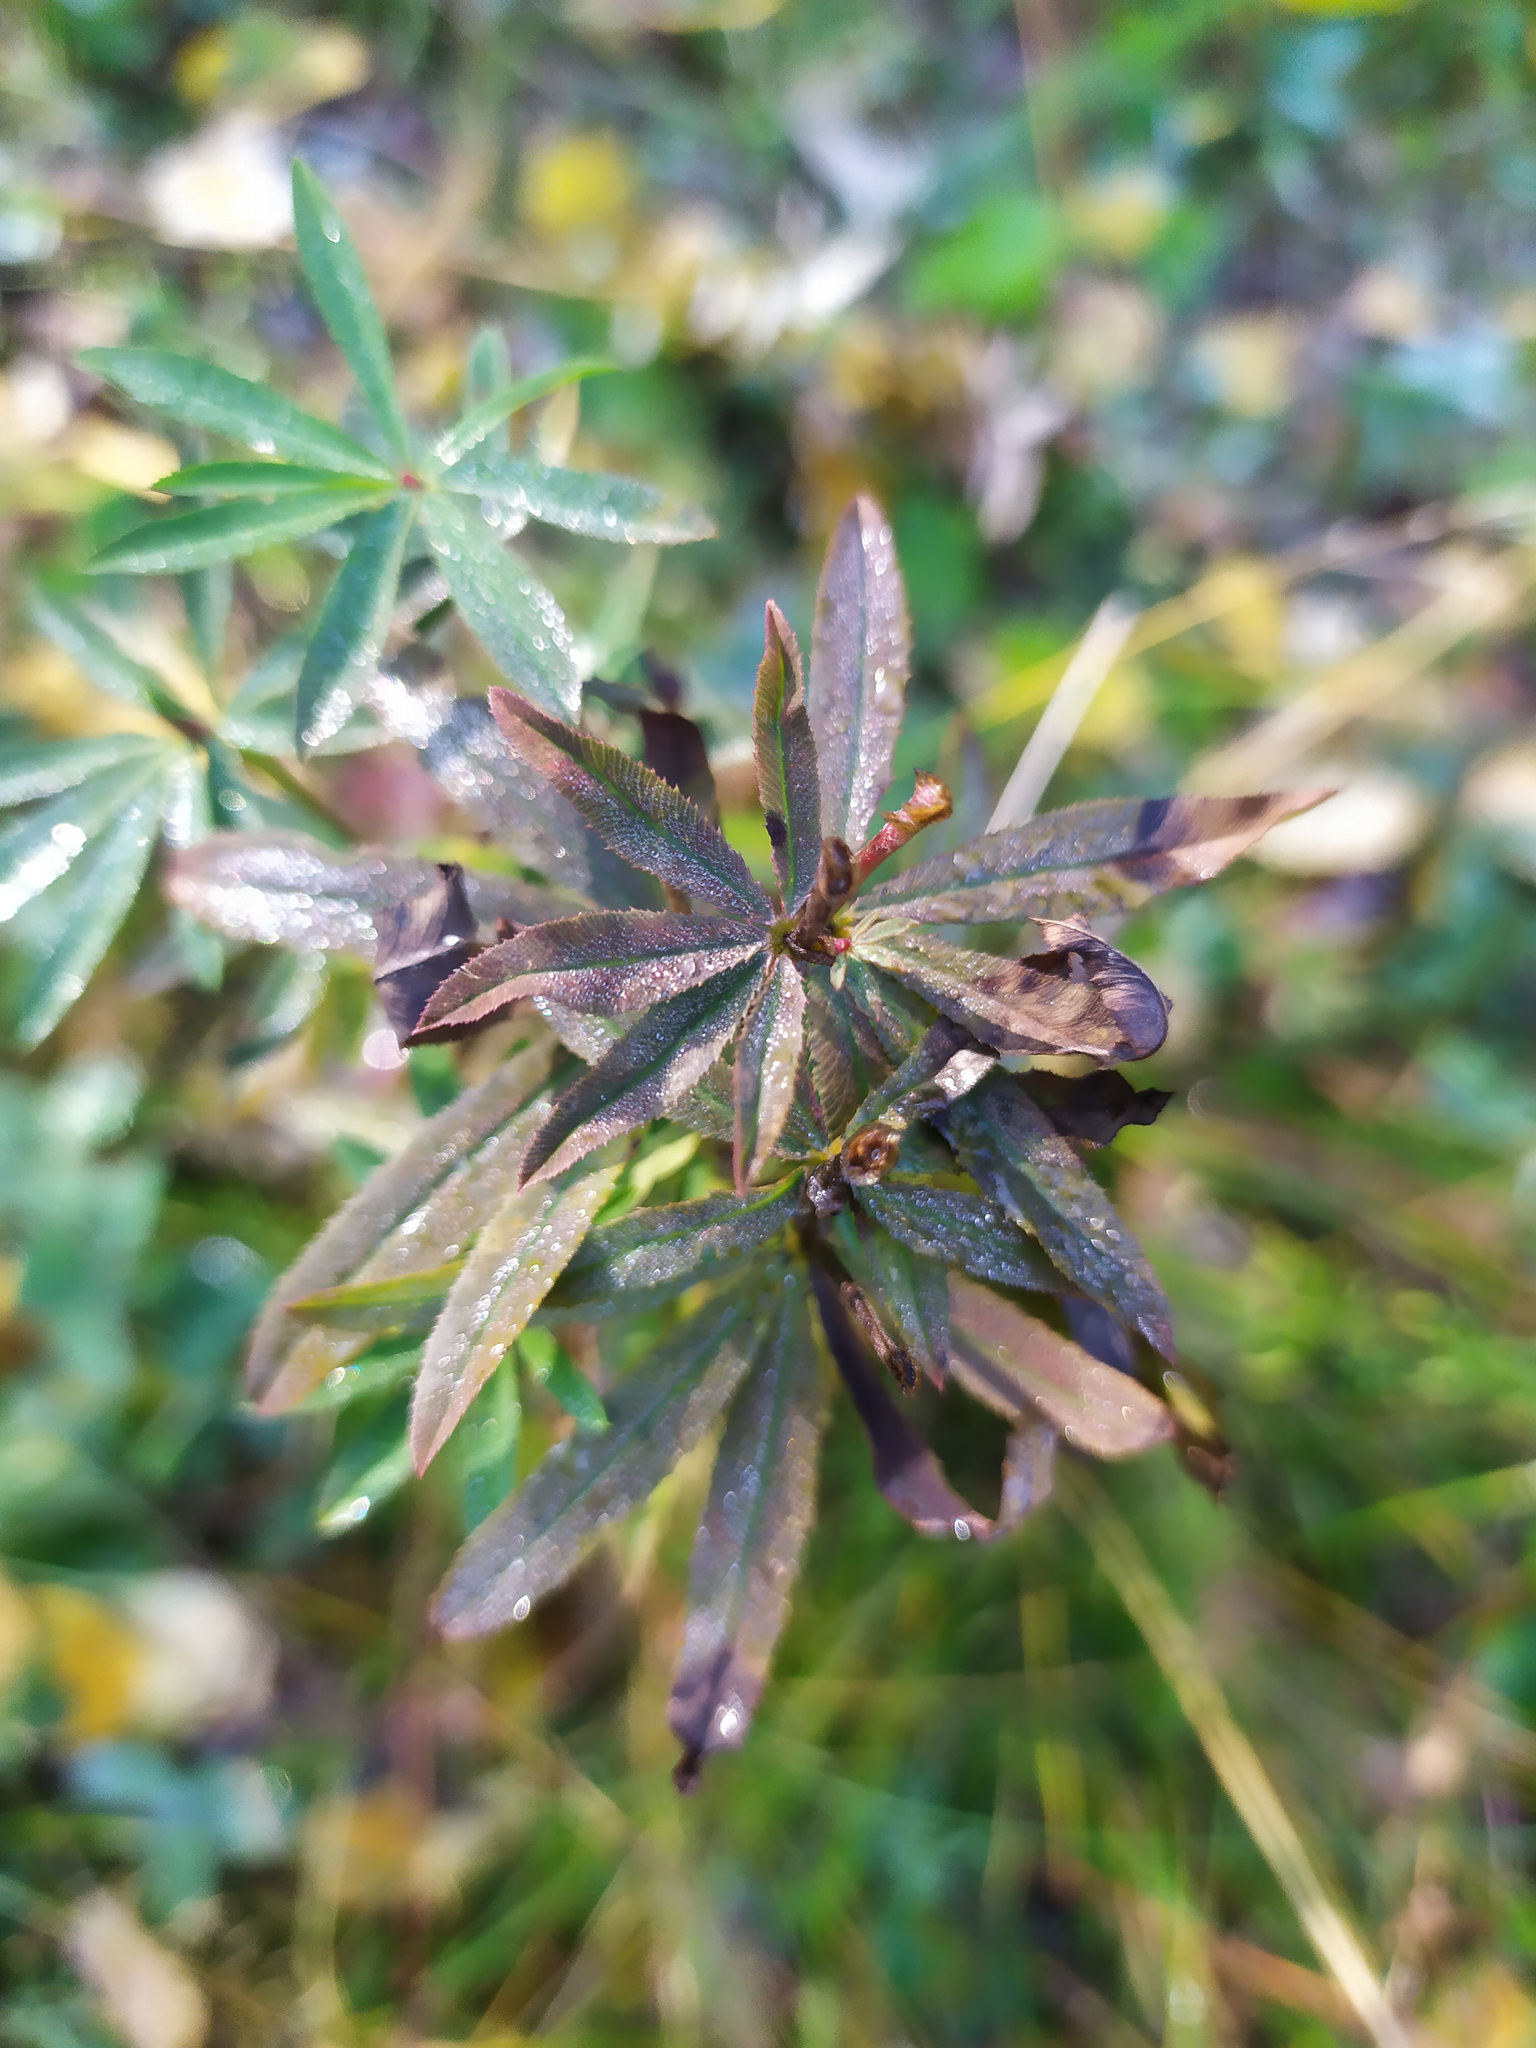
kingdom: Plantae
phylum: Tracheophyta
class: Magnoliopsida
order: Fabales
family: Fabaceae
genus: Trifolium
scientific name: Trifolium lupinaster
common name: Lupine clover
